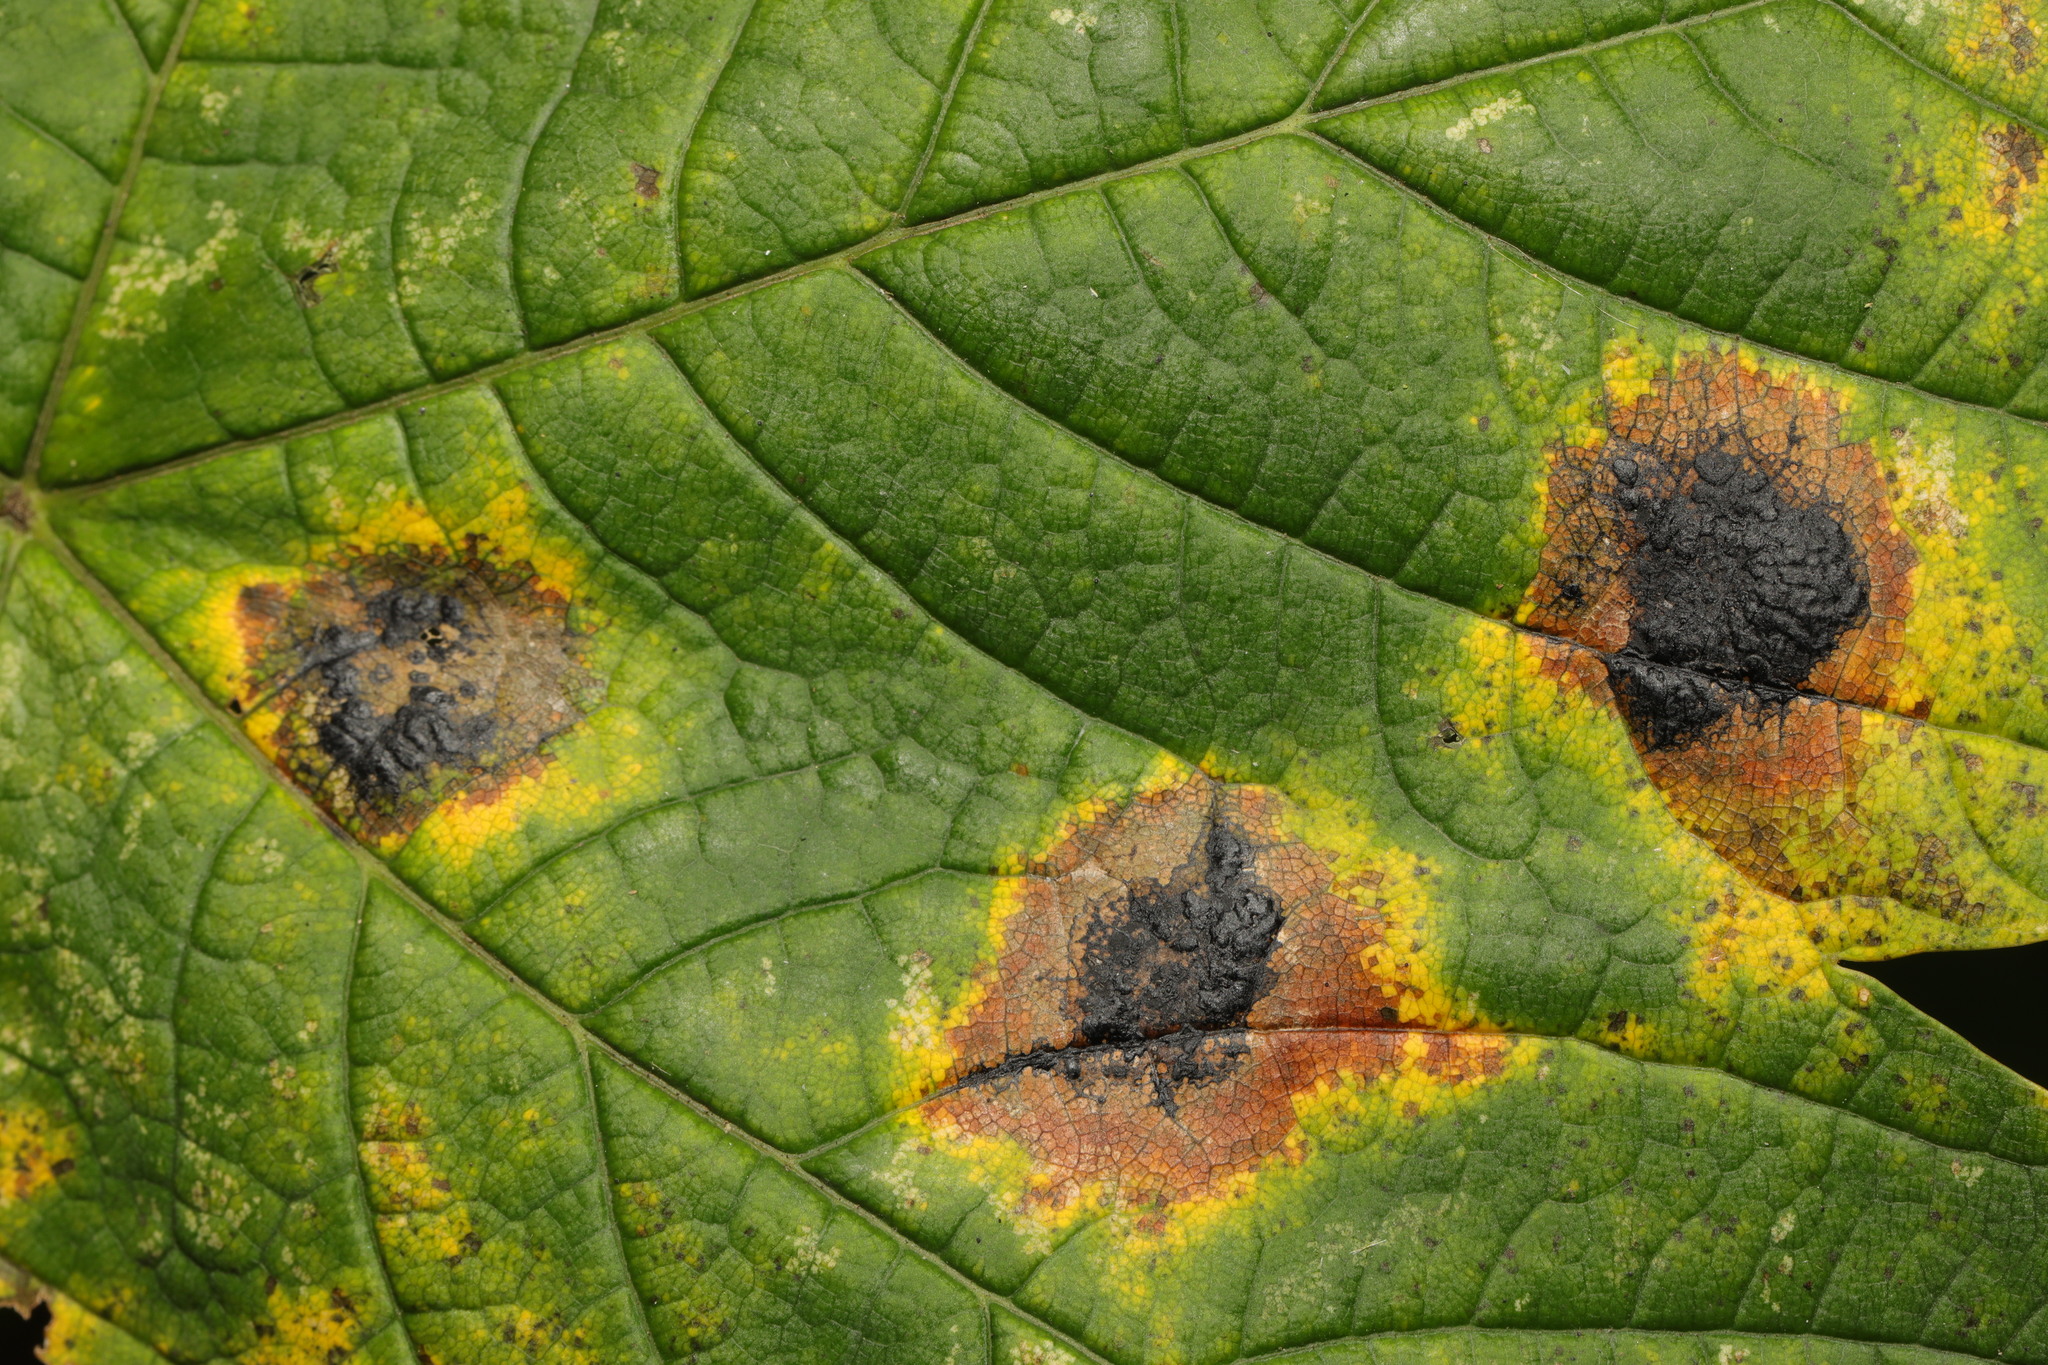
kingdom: Fungi
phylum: Ascomycota
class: Leotiomycetes
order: Rhytismatales
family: Rhytismataceae
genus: Rhytisma
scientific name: Rhytisma acerinum
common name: European tar spot
